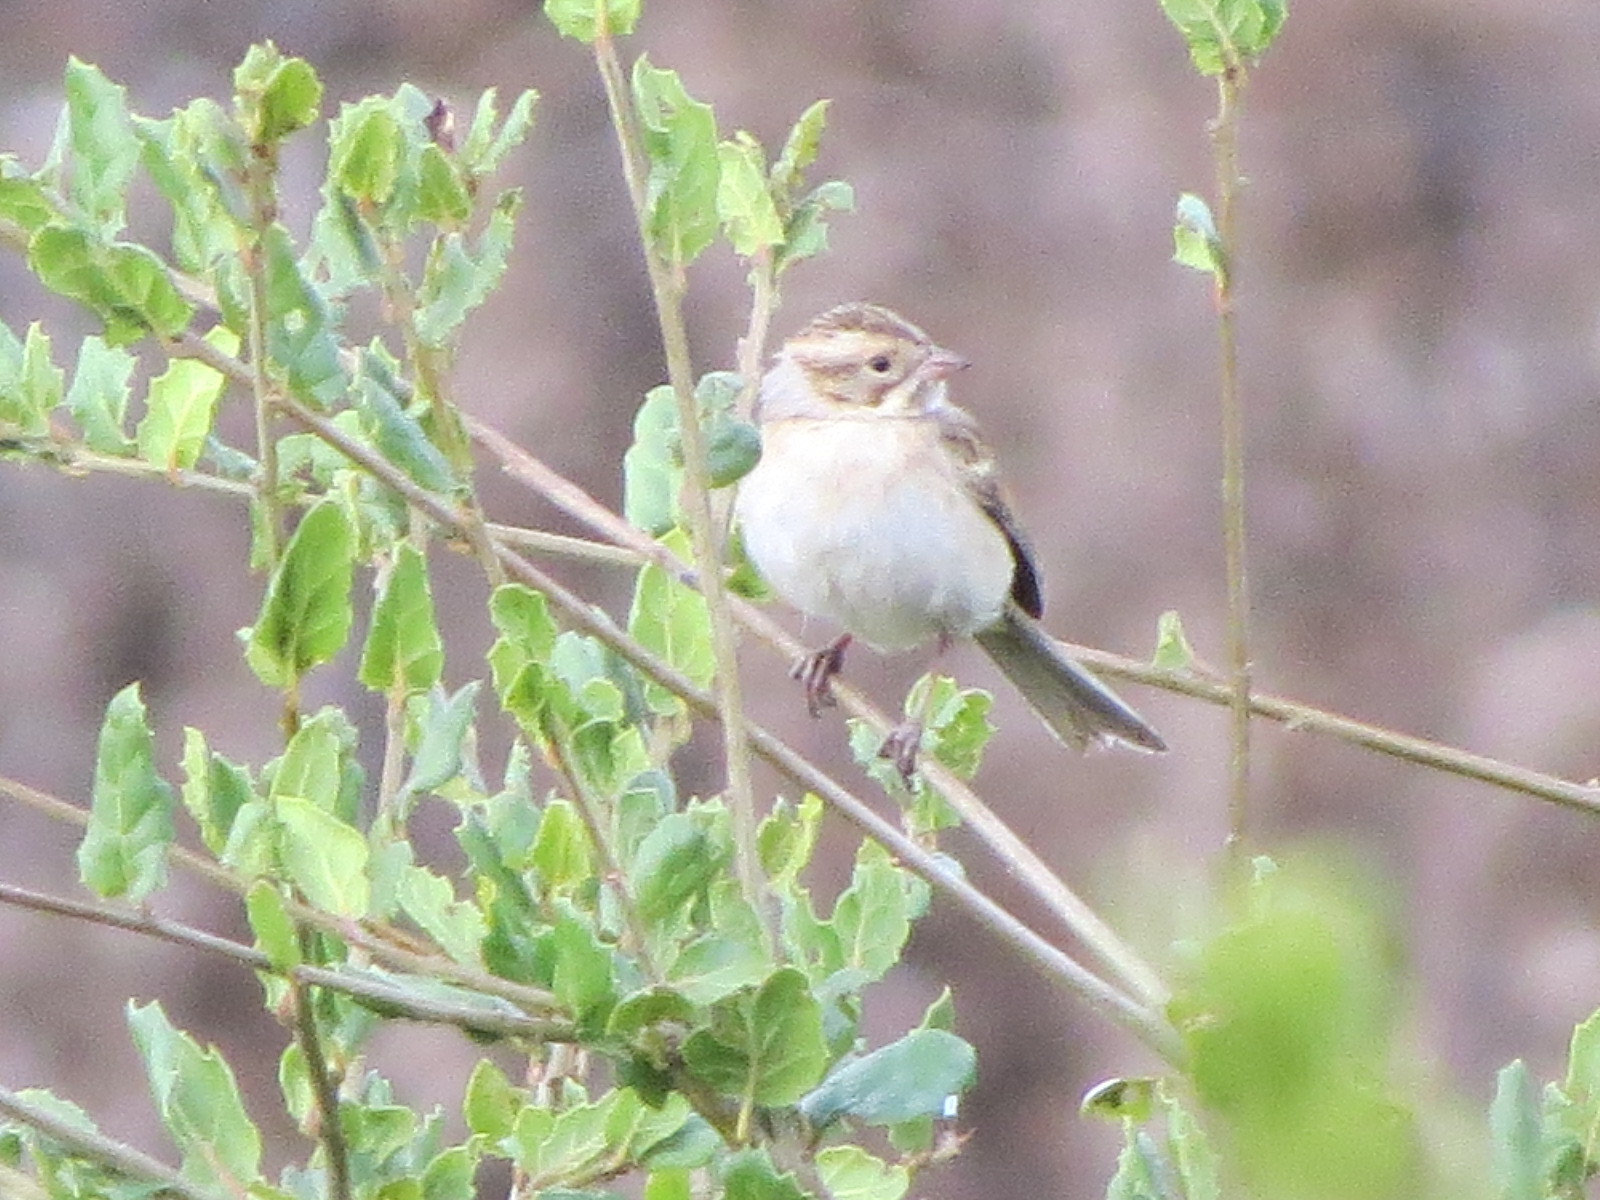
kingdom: Animalia
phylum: Chordata
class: Aves
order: Passeriformes
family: Passerellidae
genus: Spizella
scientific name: Spizella pallida
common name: Clay-colored sparrow
